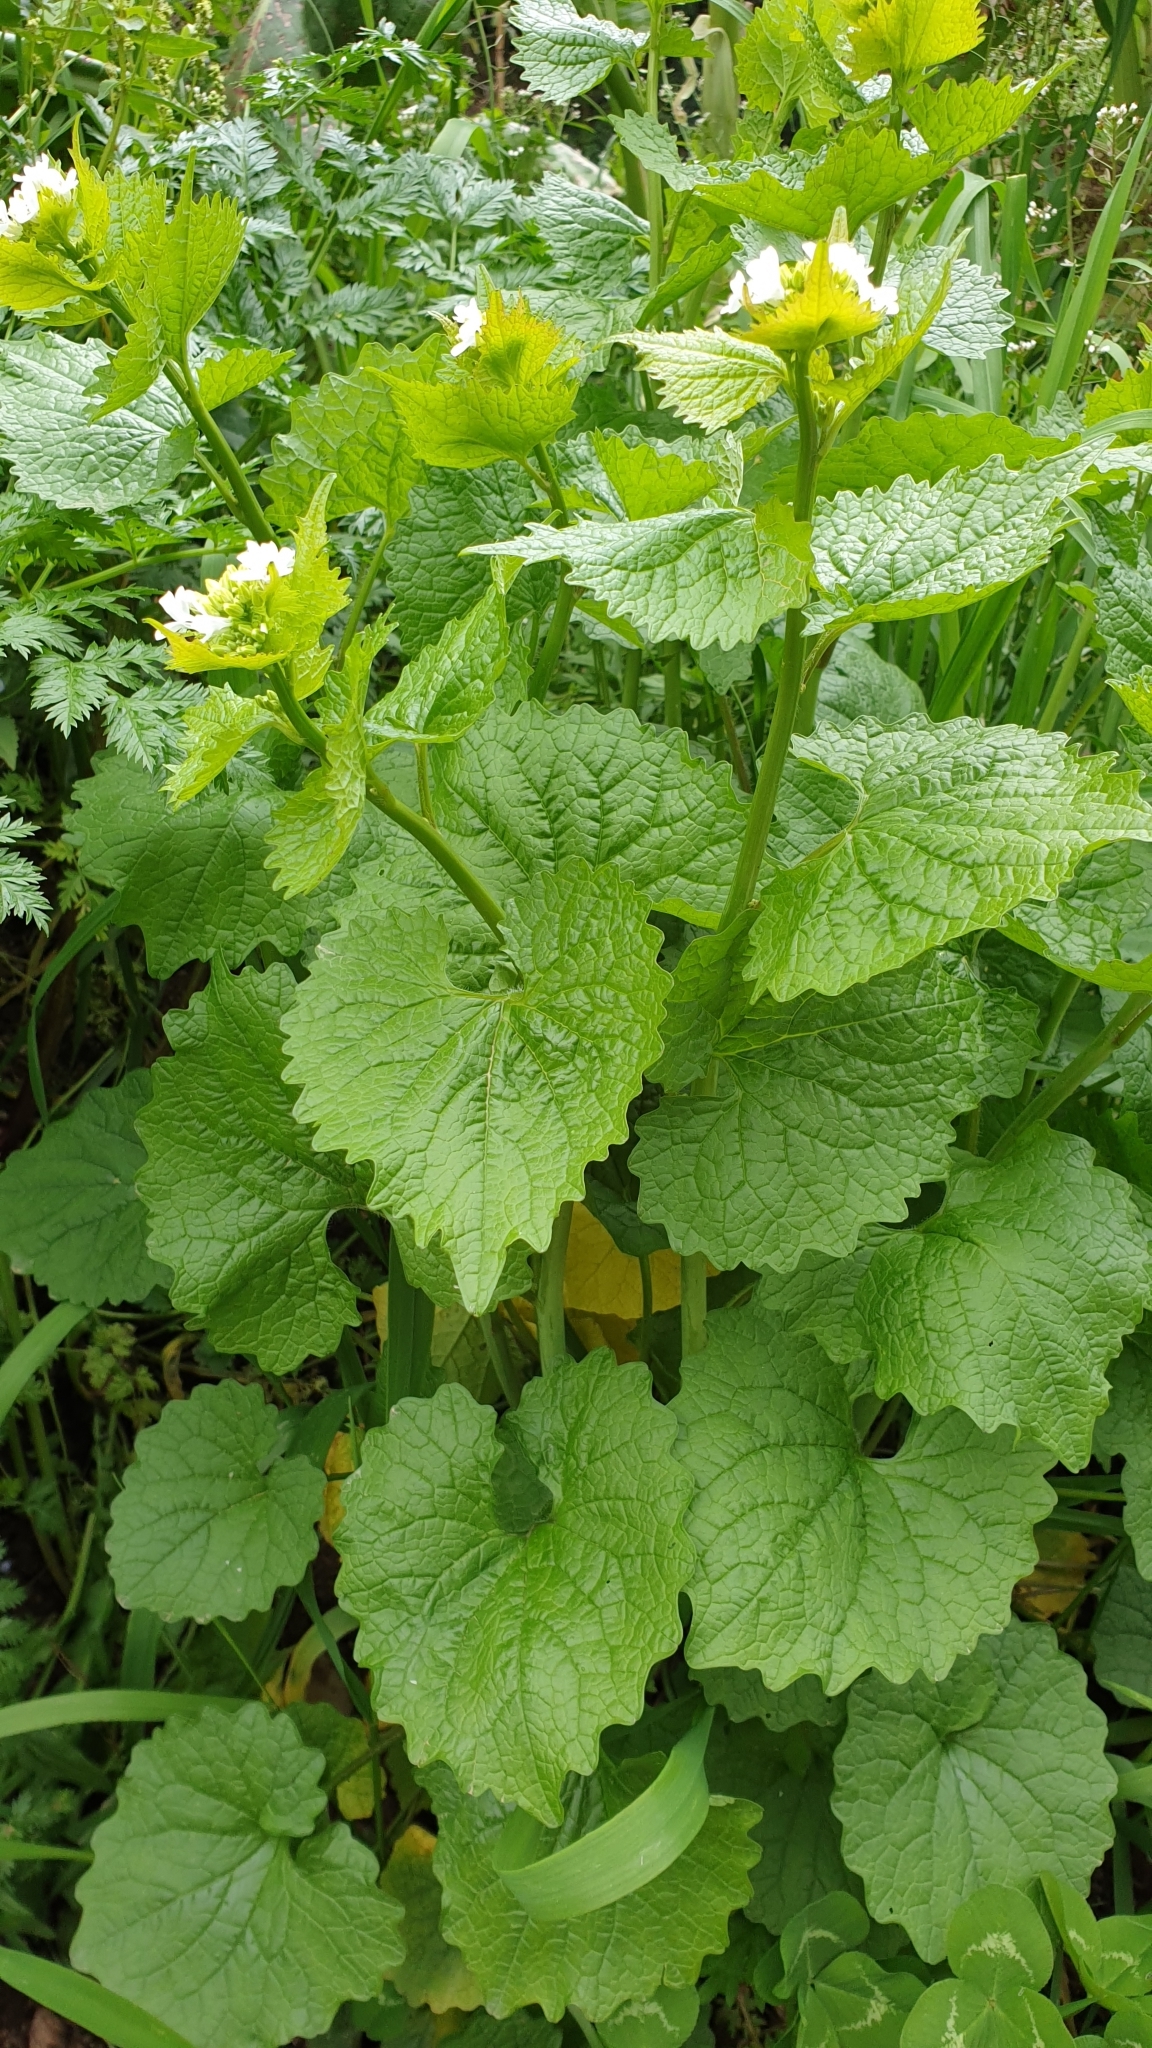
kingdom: Plantae
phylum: Tracheophyta
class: Magnoliopsida
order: Brassicales
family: Brassicaceae
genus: Alliaria
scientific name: Alliaria petiolata
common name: Garlic mustard
